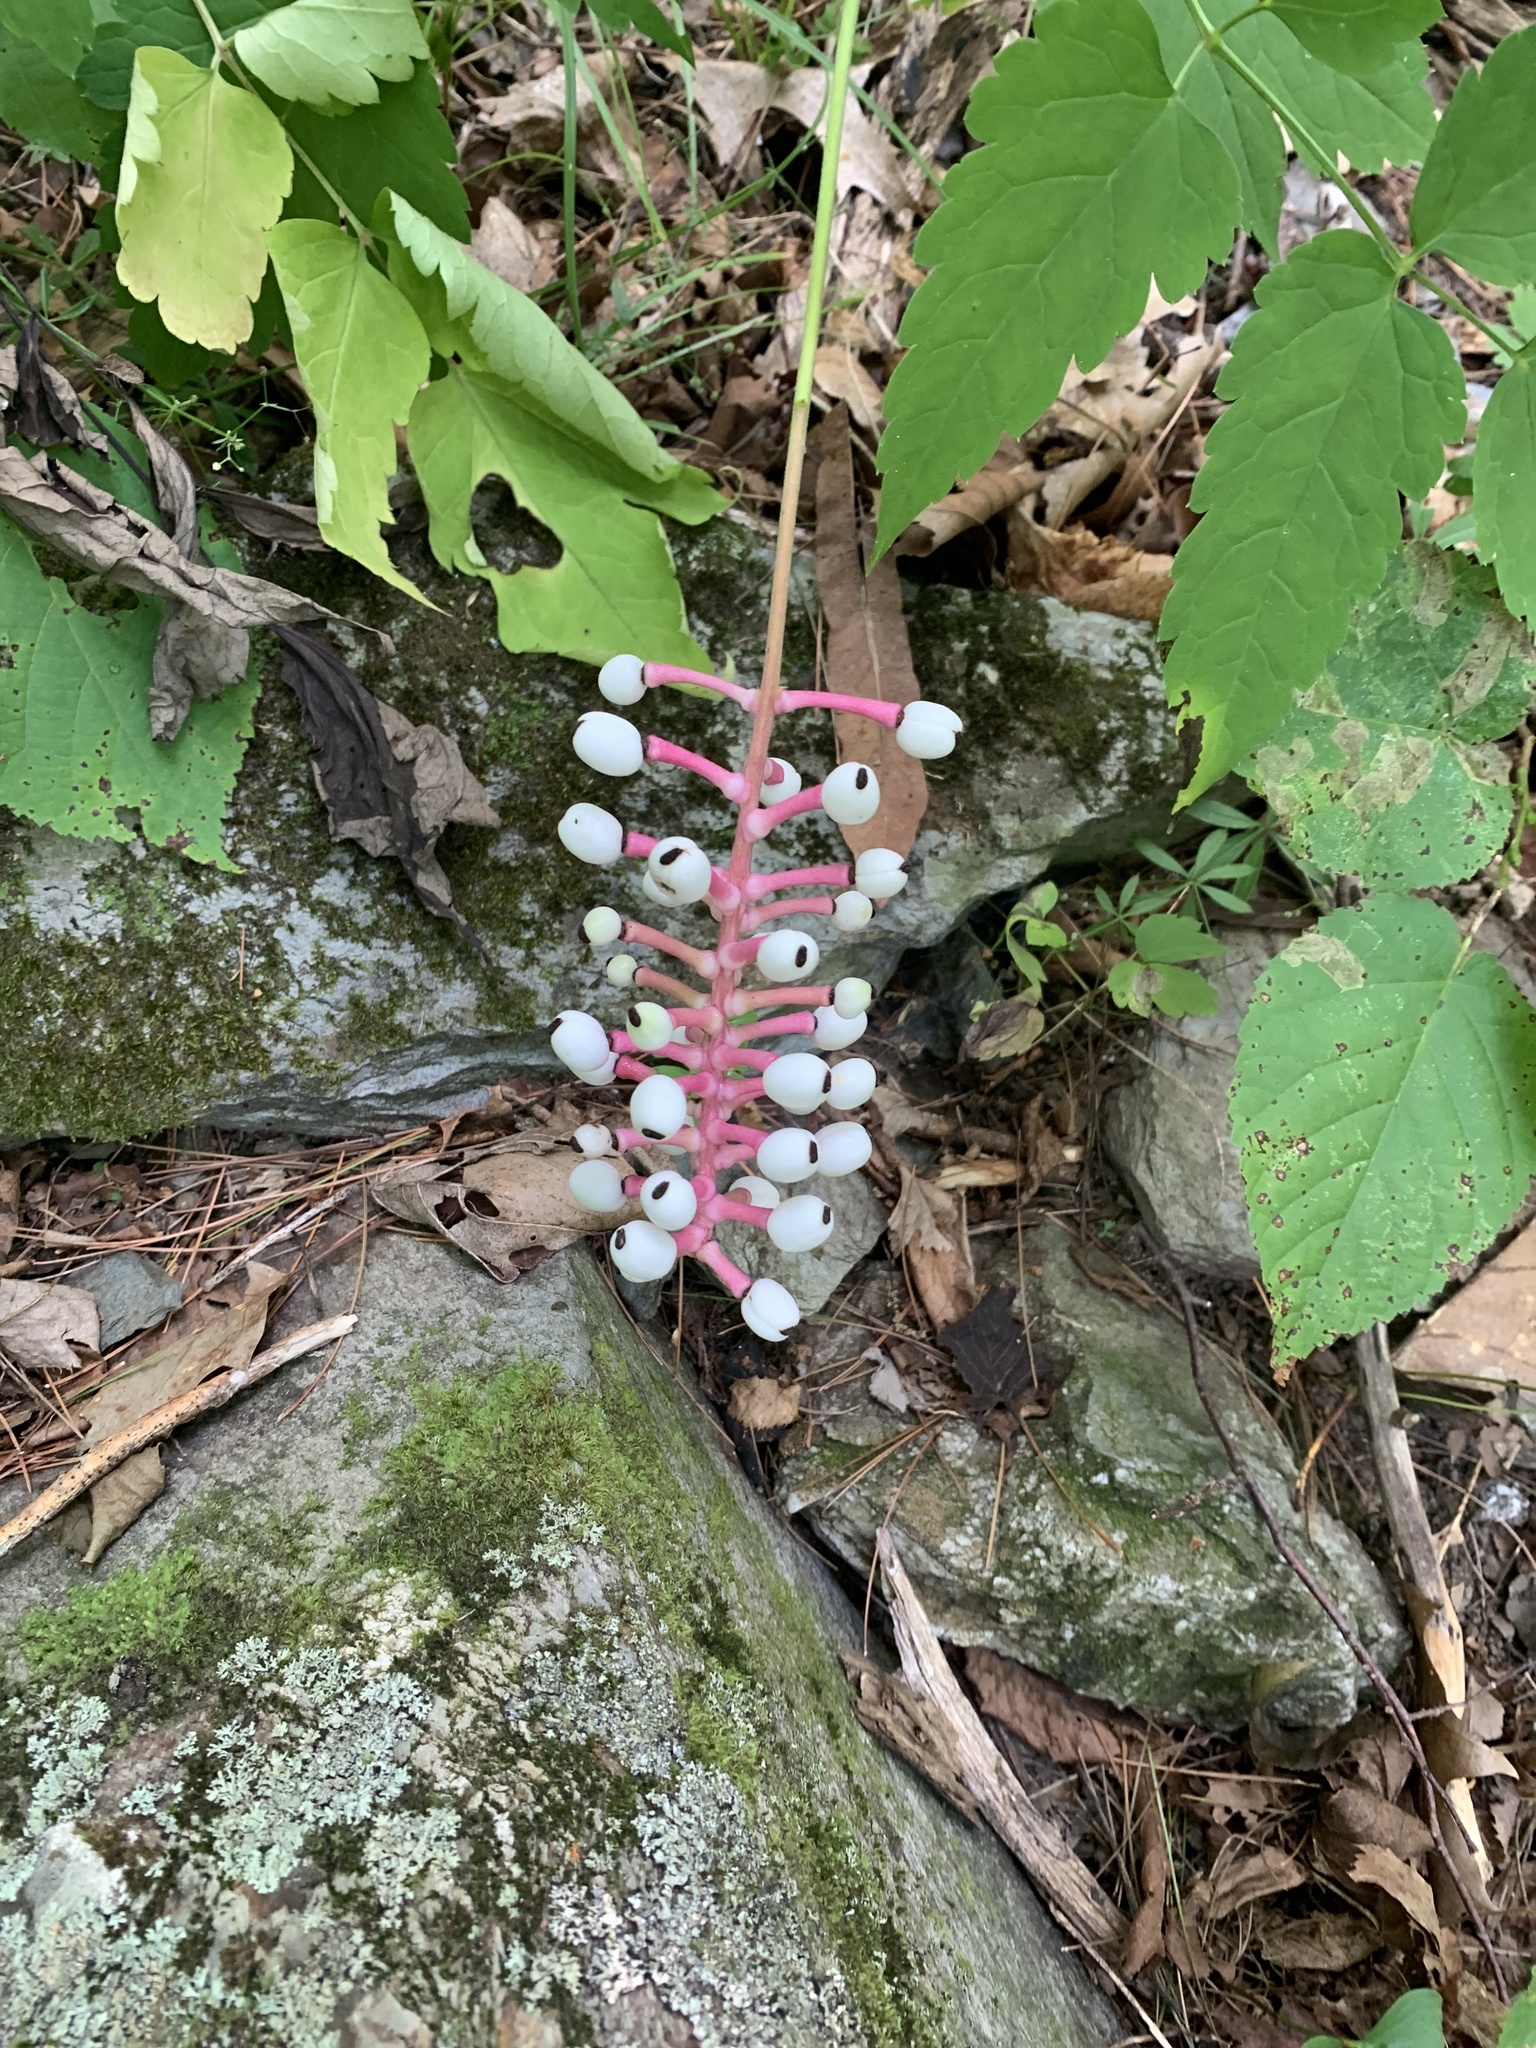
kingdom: Plantae
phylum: Tracheophyta
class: Magnoliopsida
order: Ranunculales
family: Ranunculaceae
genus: Actaea
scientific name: Actaea pachypoda
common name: Doll's-eyes
